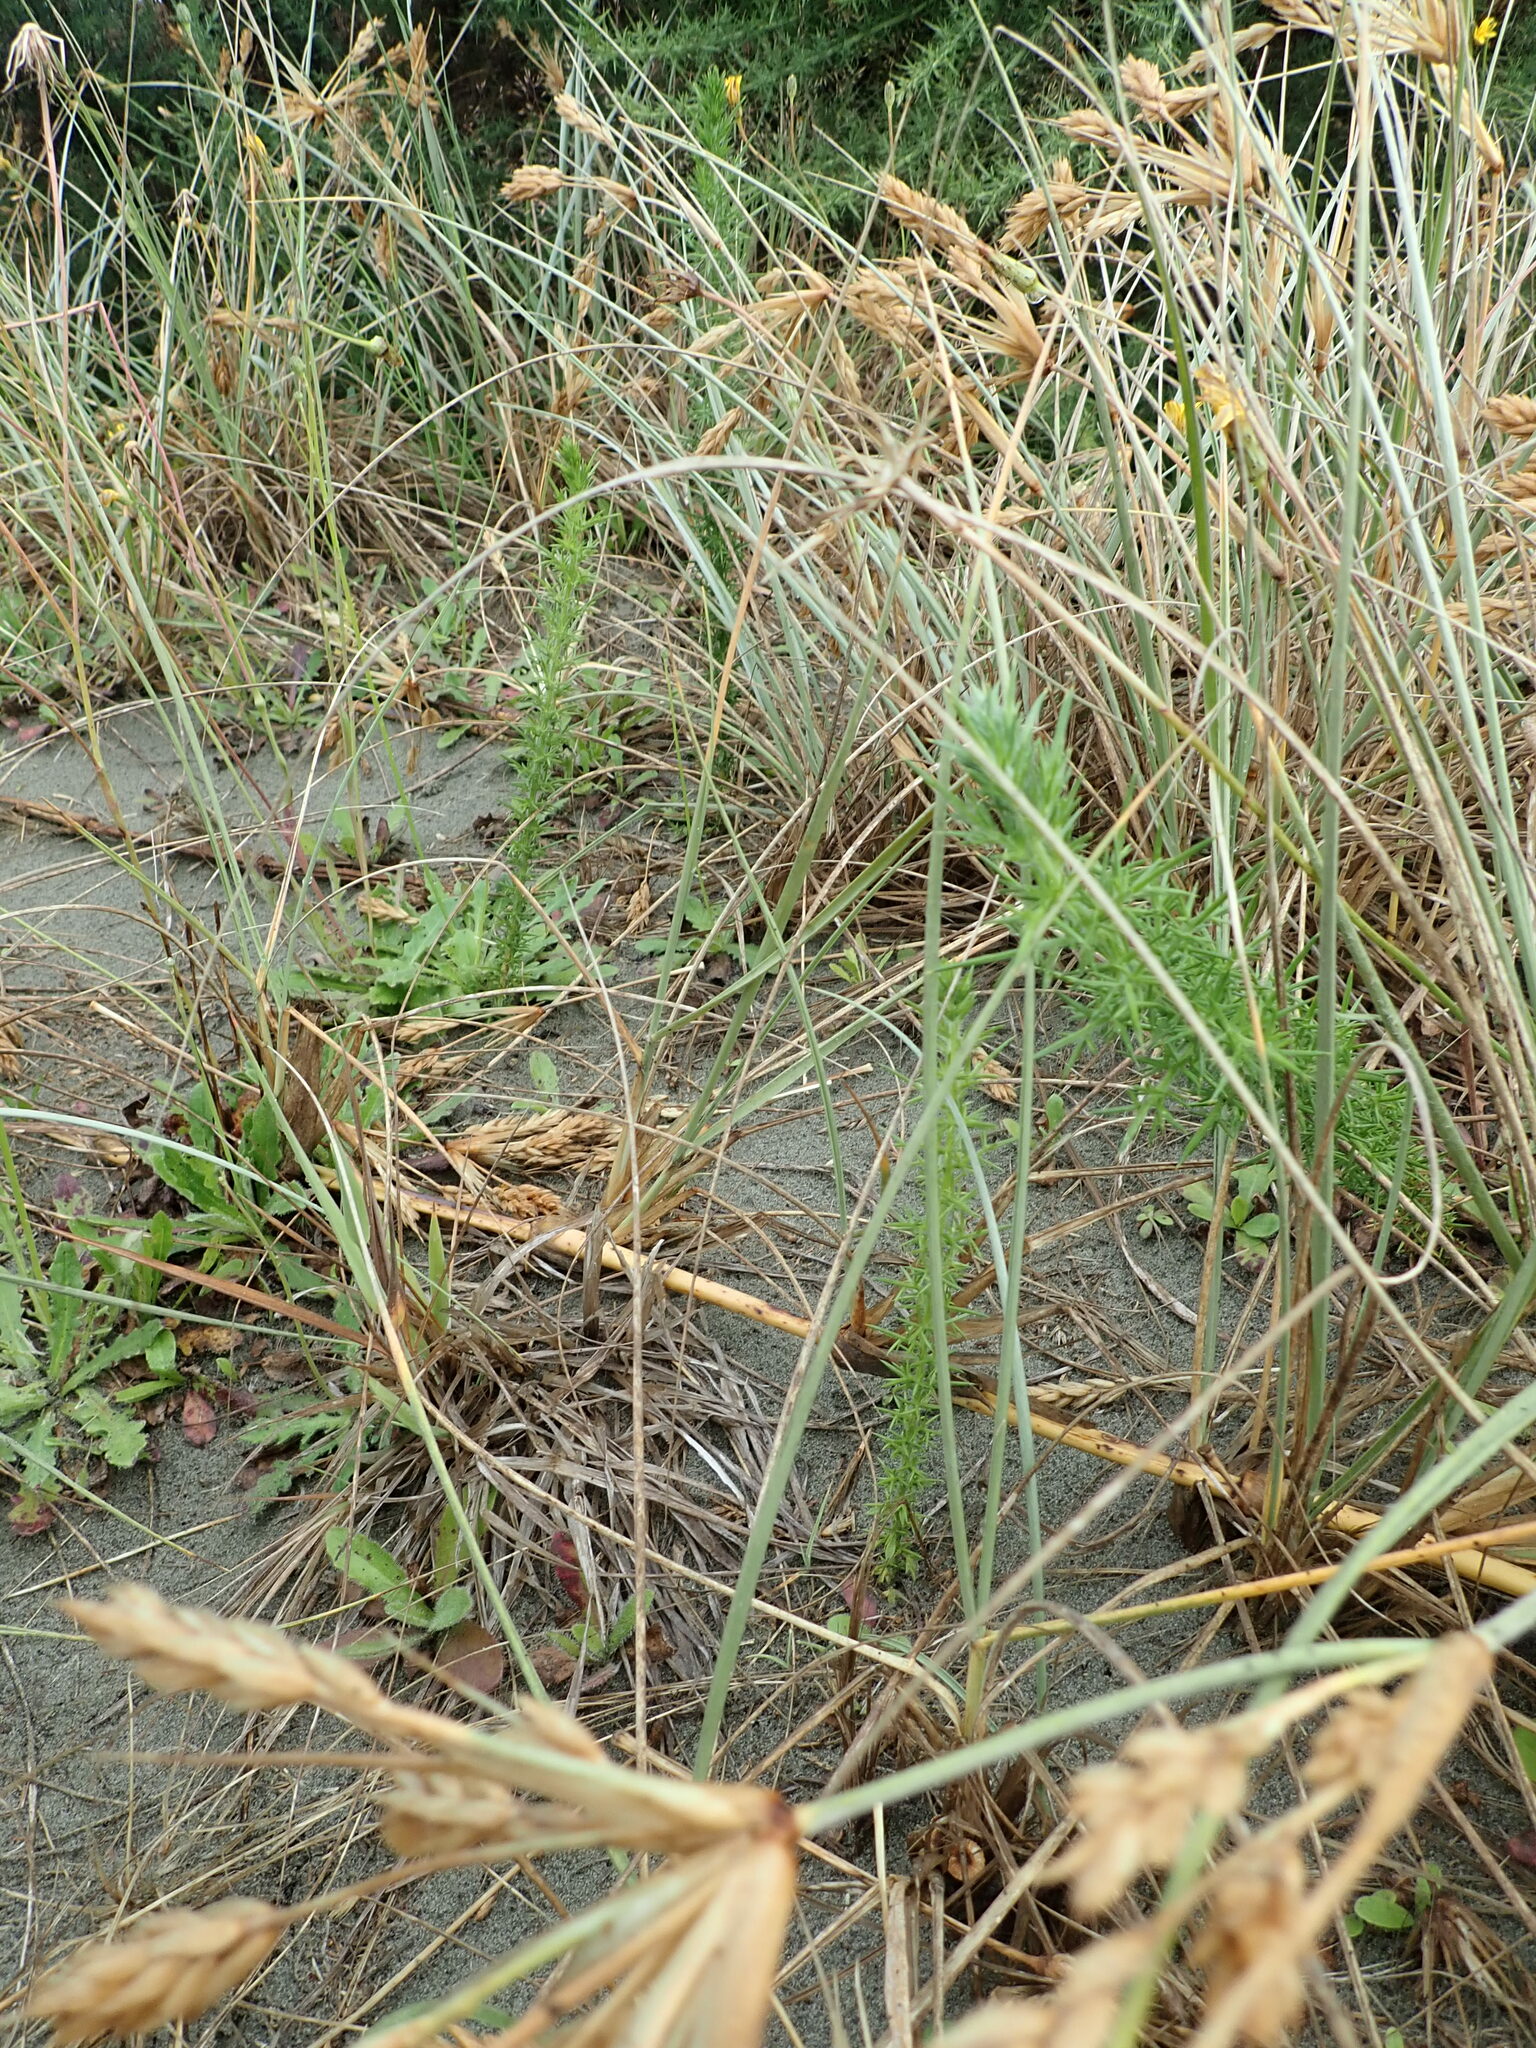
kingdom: Plantae
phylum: Tracheophyta
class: Magnoliopsida
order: Fabales
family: Fabaceae
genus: Ulex
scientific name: Ulex europaeus
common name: Common gorse
